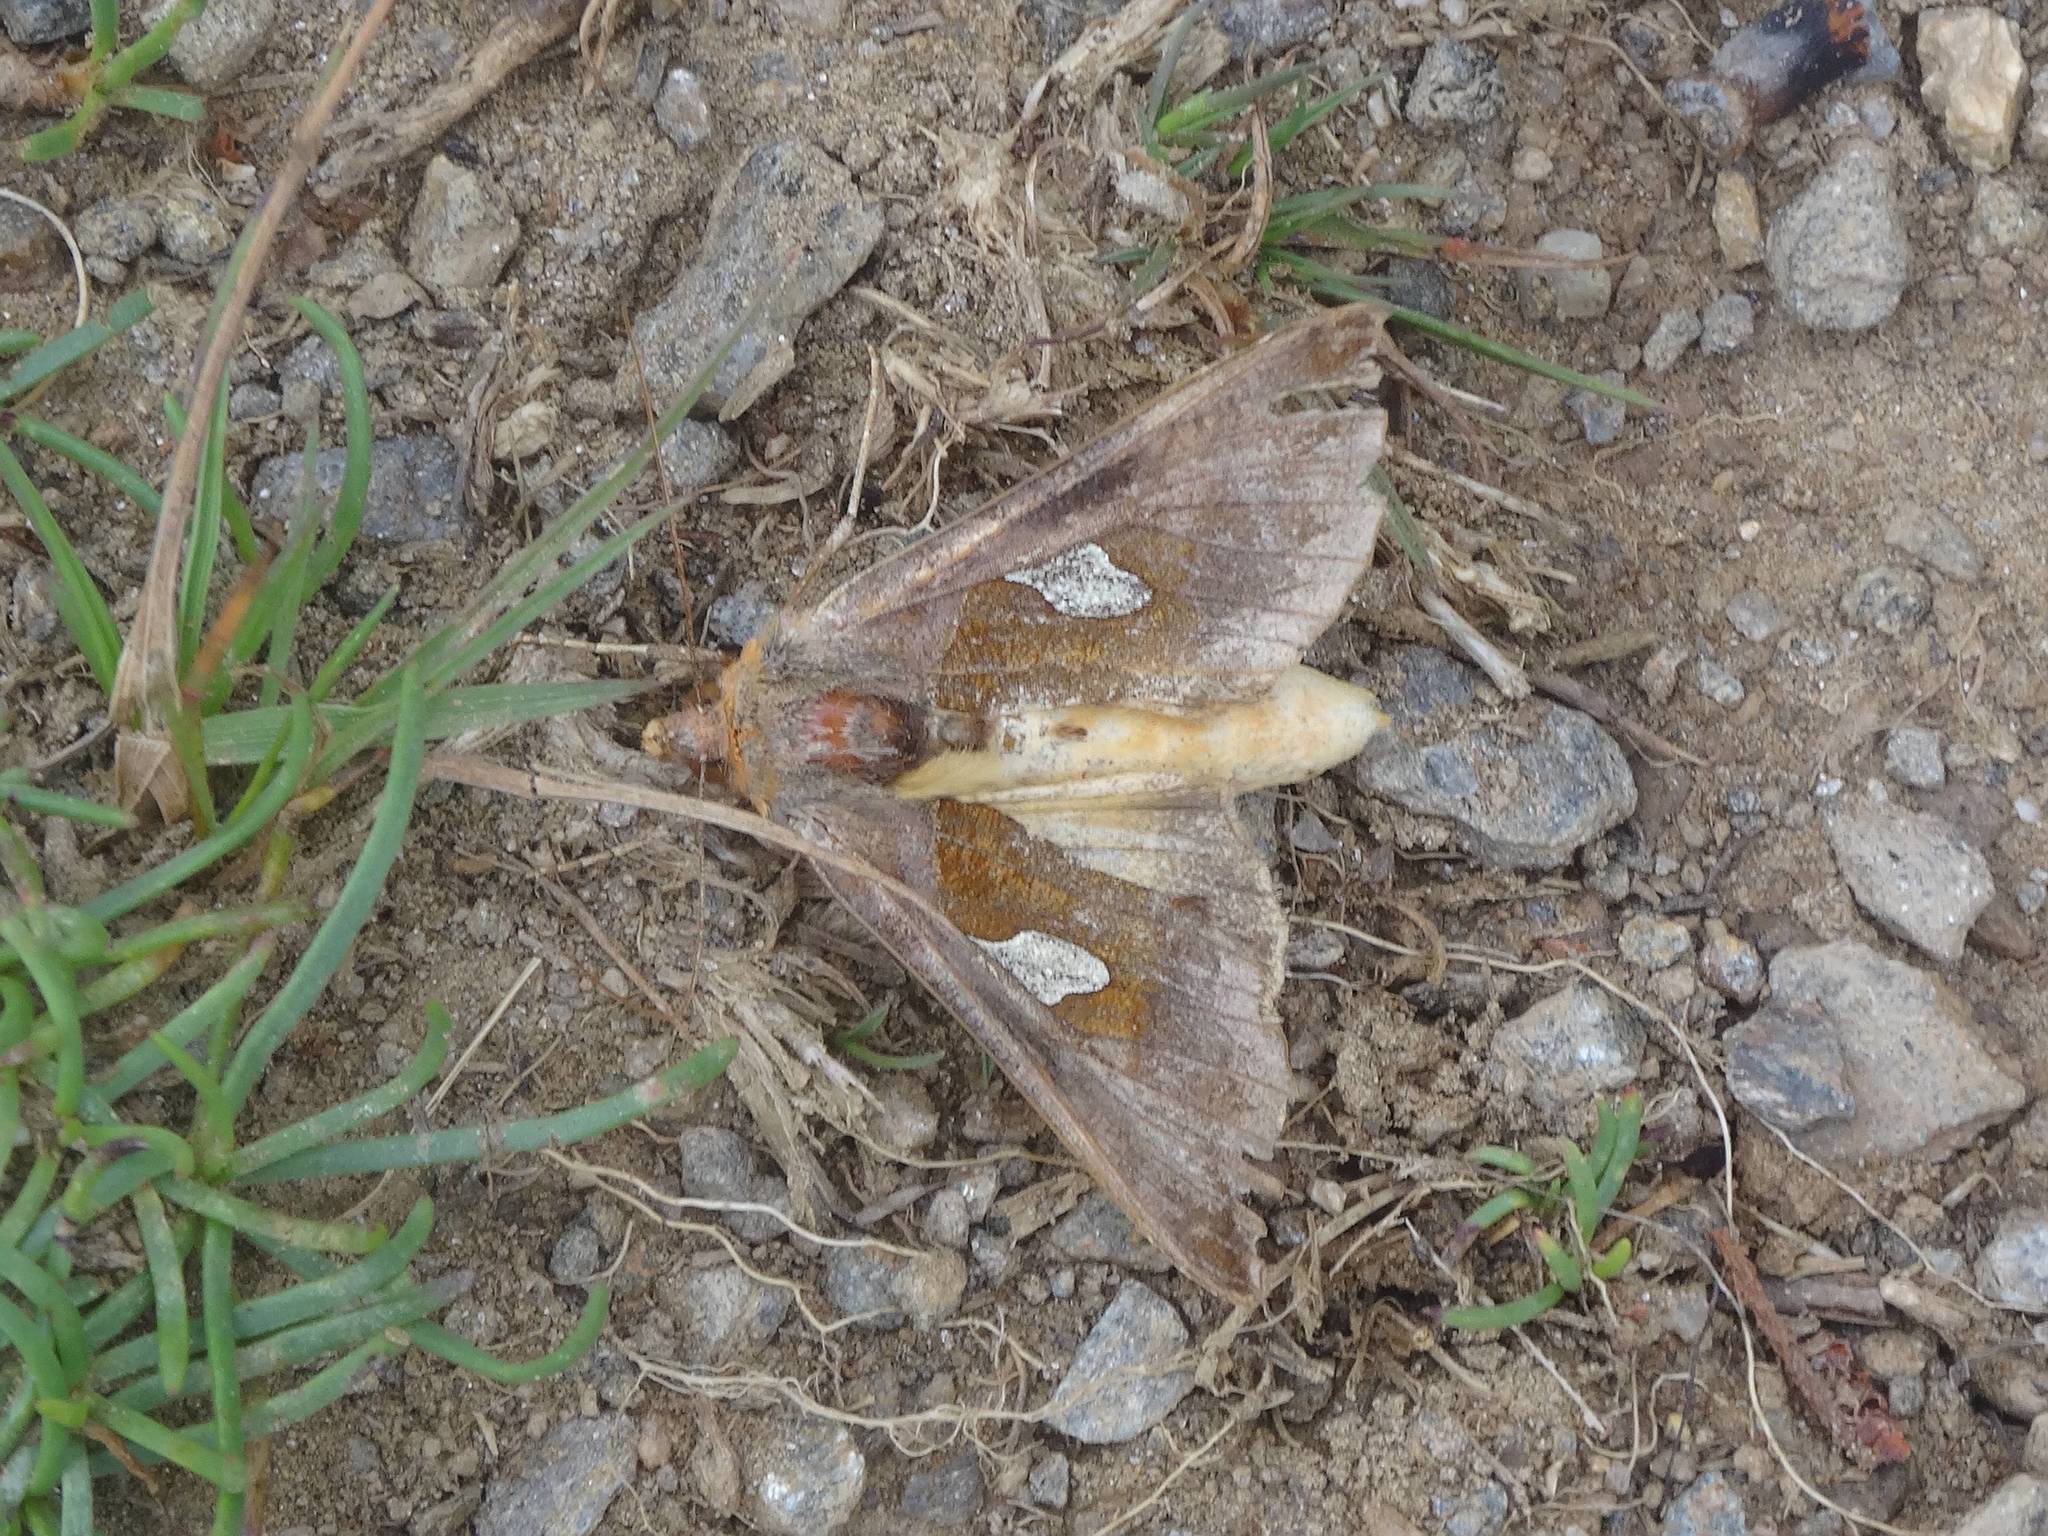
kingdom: Animalia
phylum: Arthropoda
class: Insecta
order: Lepidoptera
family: Noctuidae
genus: Autographa
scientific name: Autographa bractea
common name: Gold spangle
